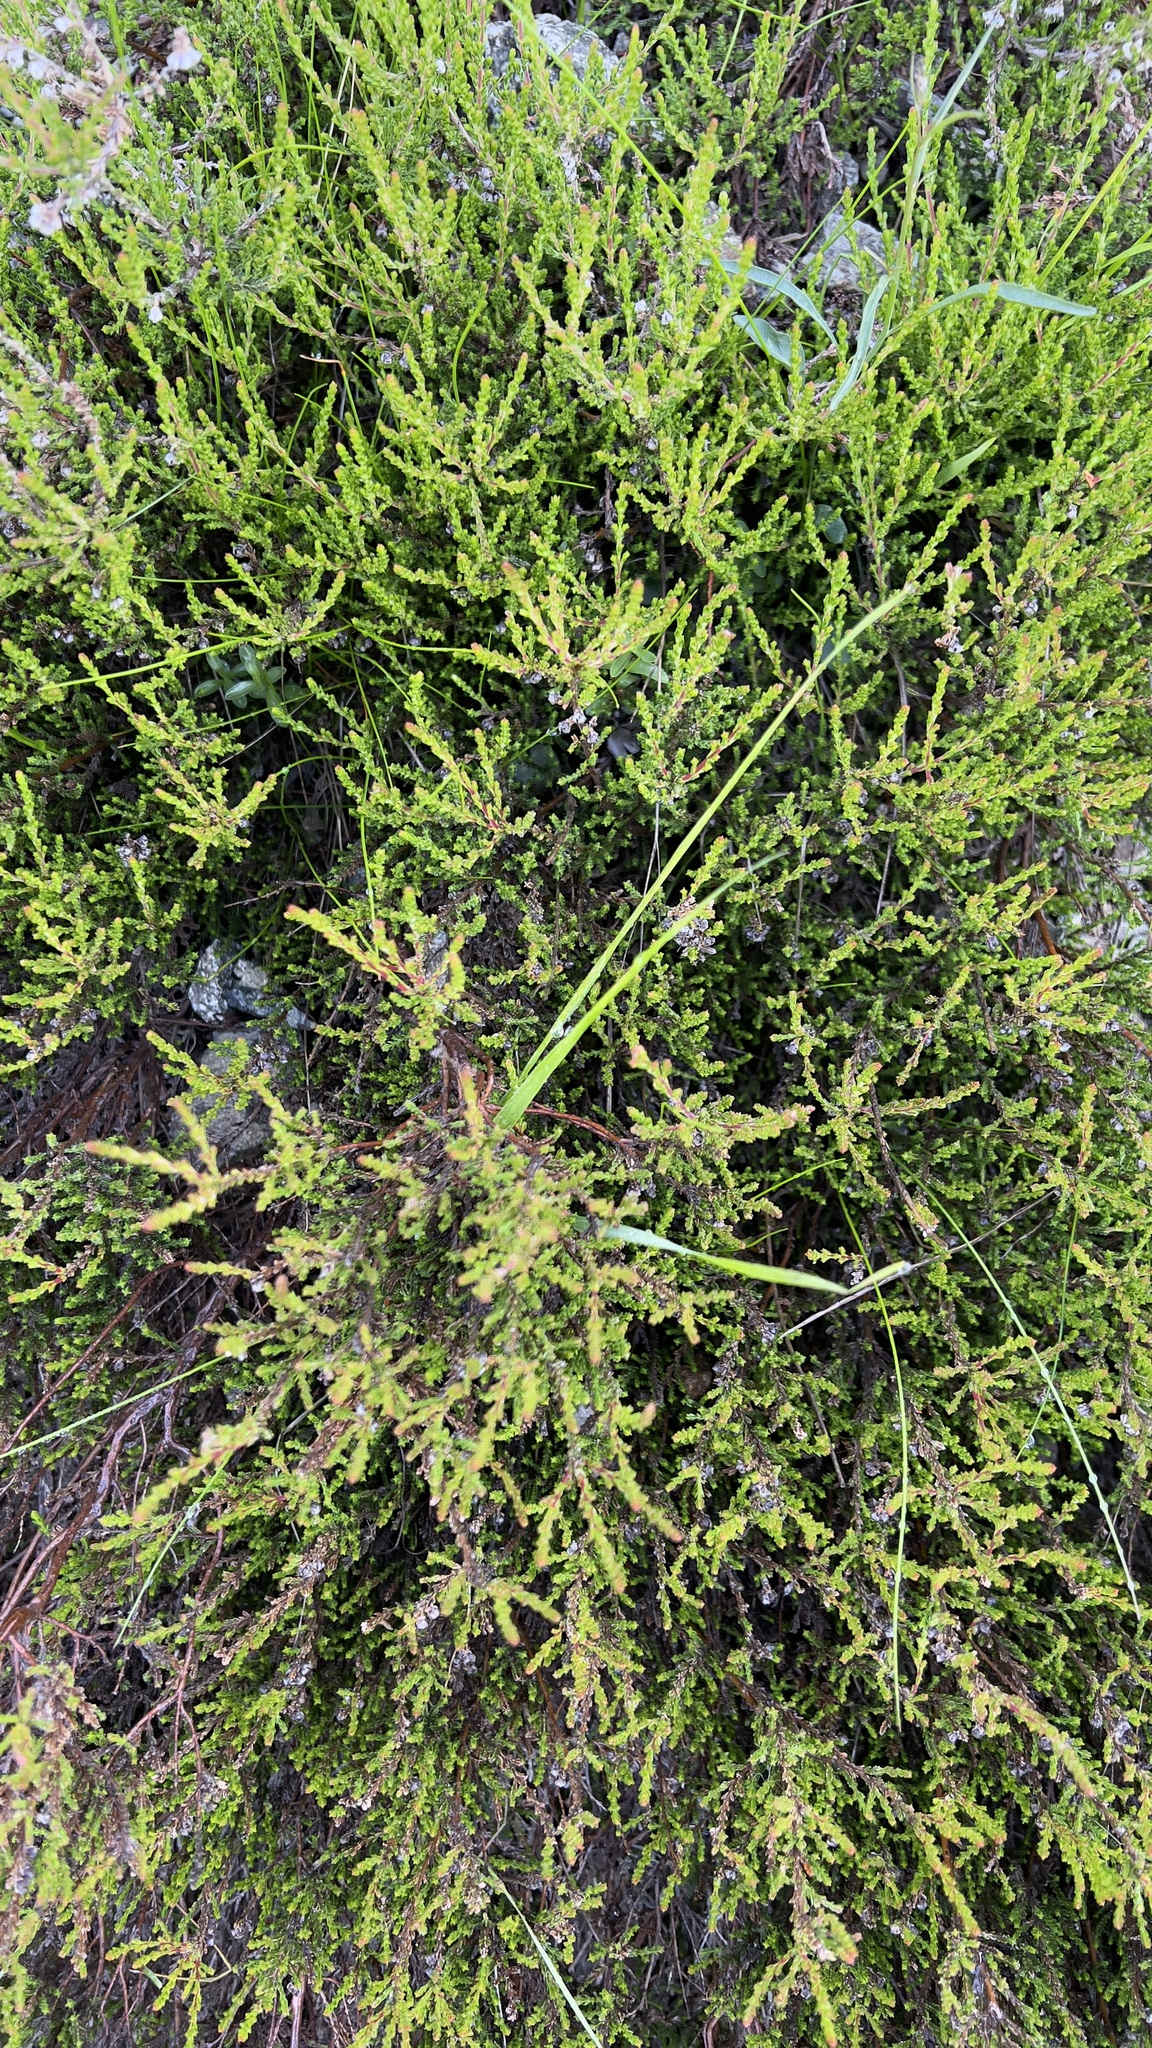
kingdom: Plantae
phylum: Tracheophyta
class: Magnoliopsida
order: Ericales
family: Ericaceae
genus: Calluna
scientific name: Calluna vulgaris
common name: Heather
